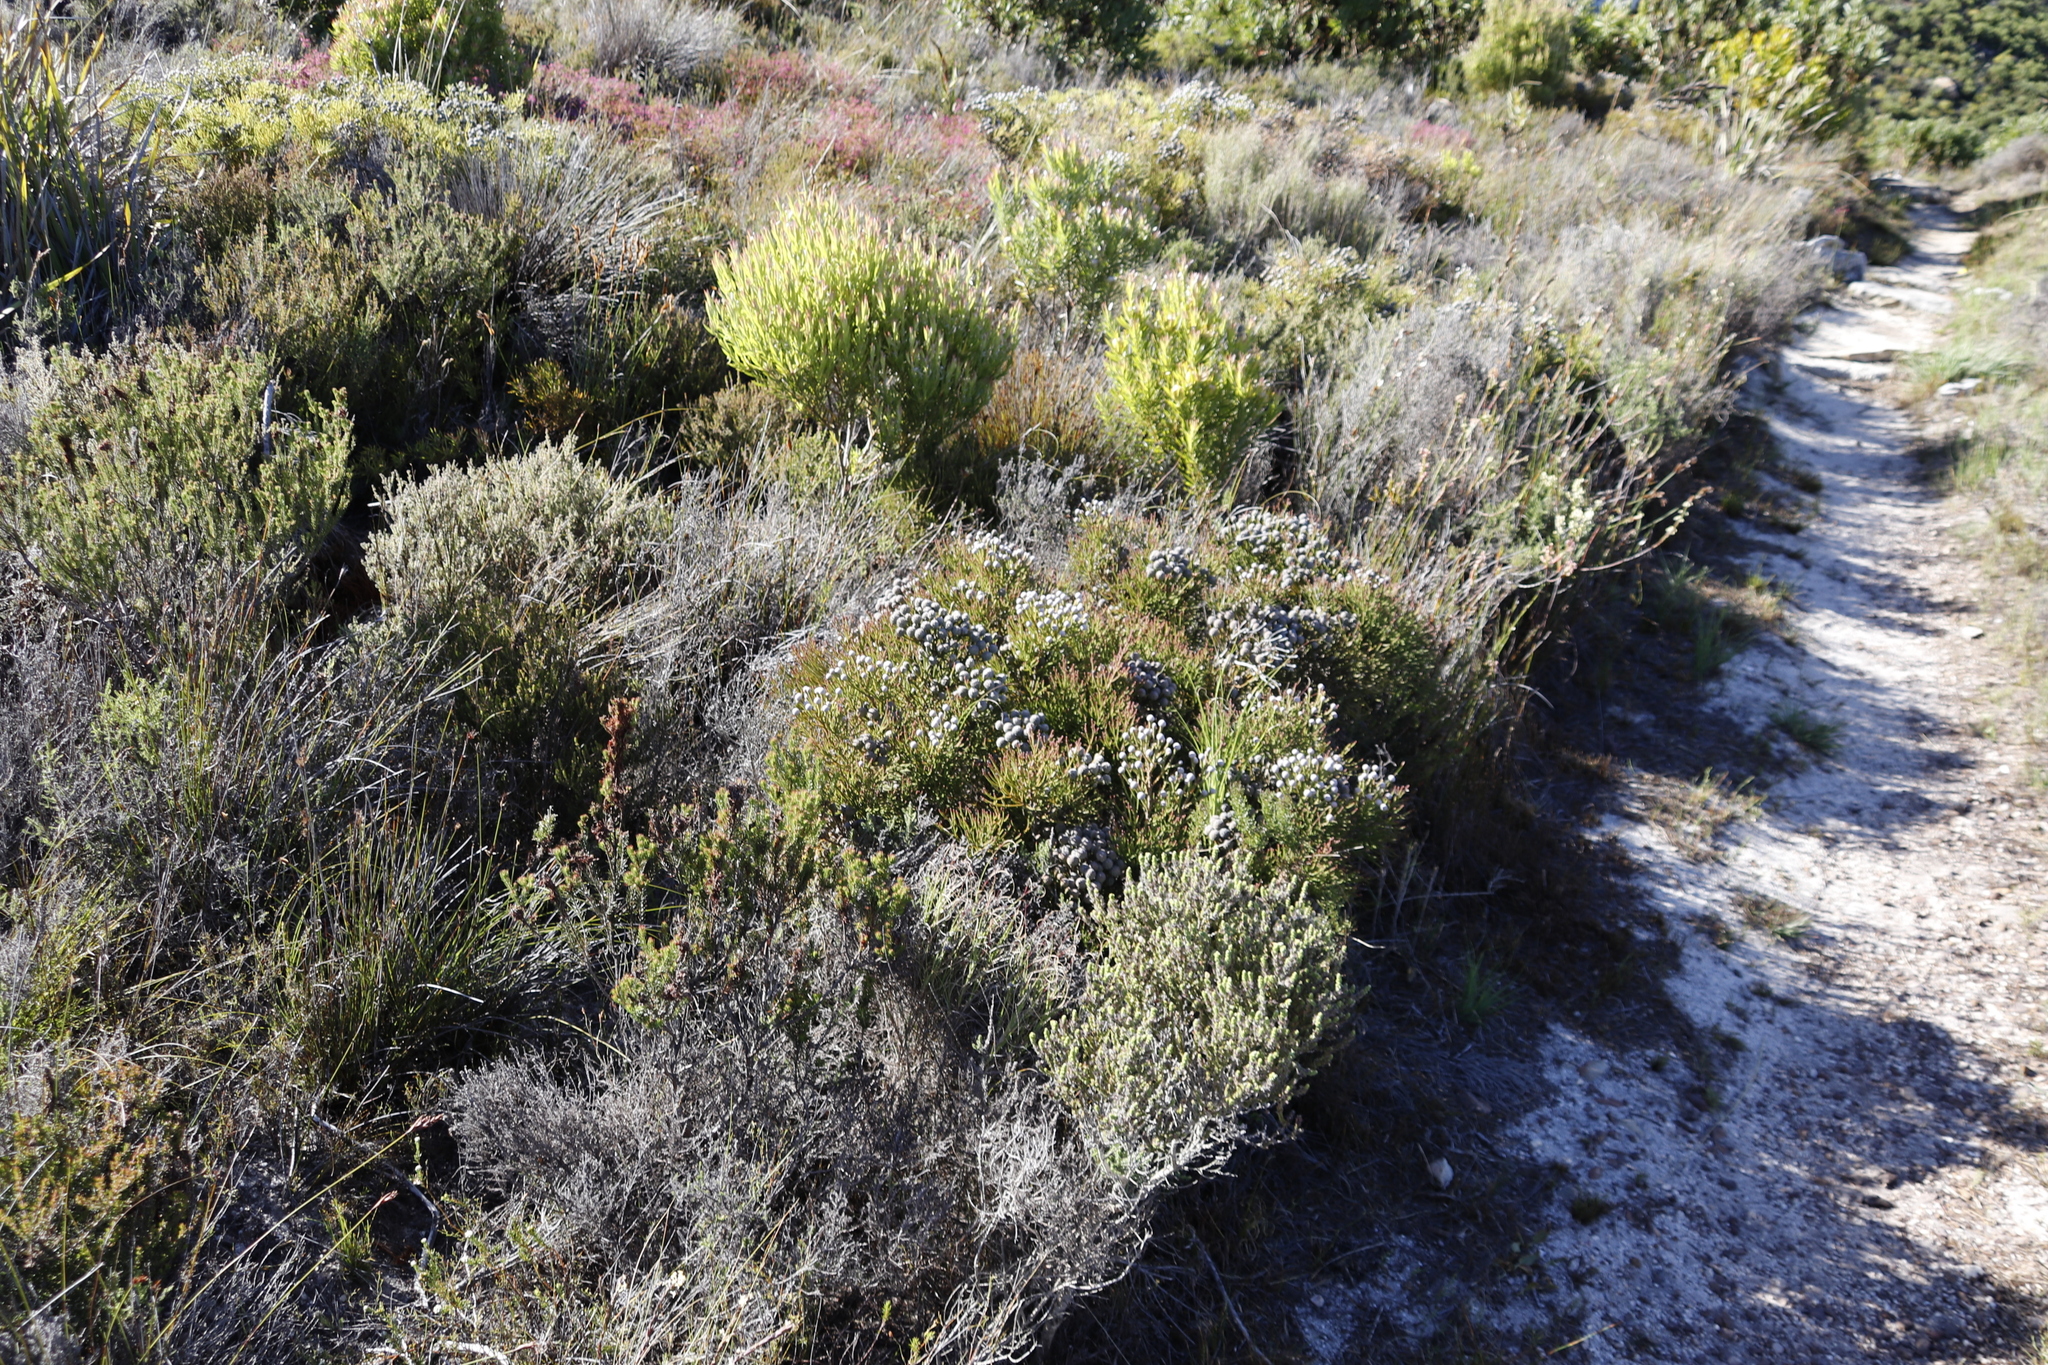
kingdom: Plantae
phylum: Tracheophyta
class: Magnoliopsida
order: Bruniales
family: Bruniaceae
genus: Brunia
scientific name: Brunia noduliflora
